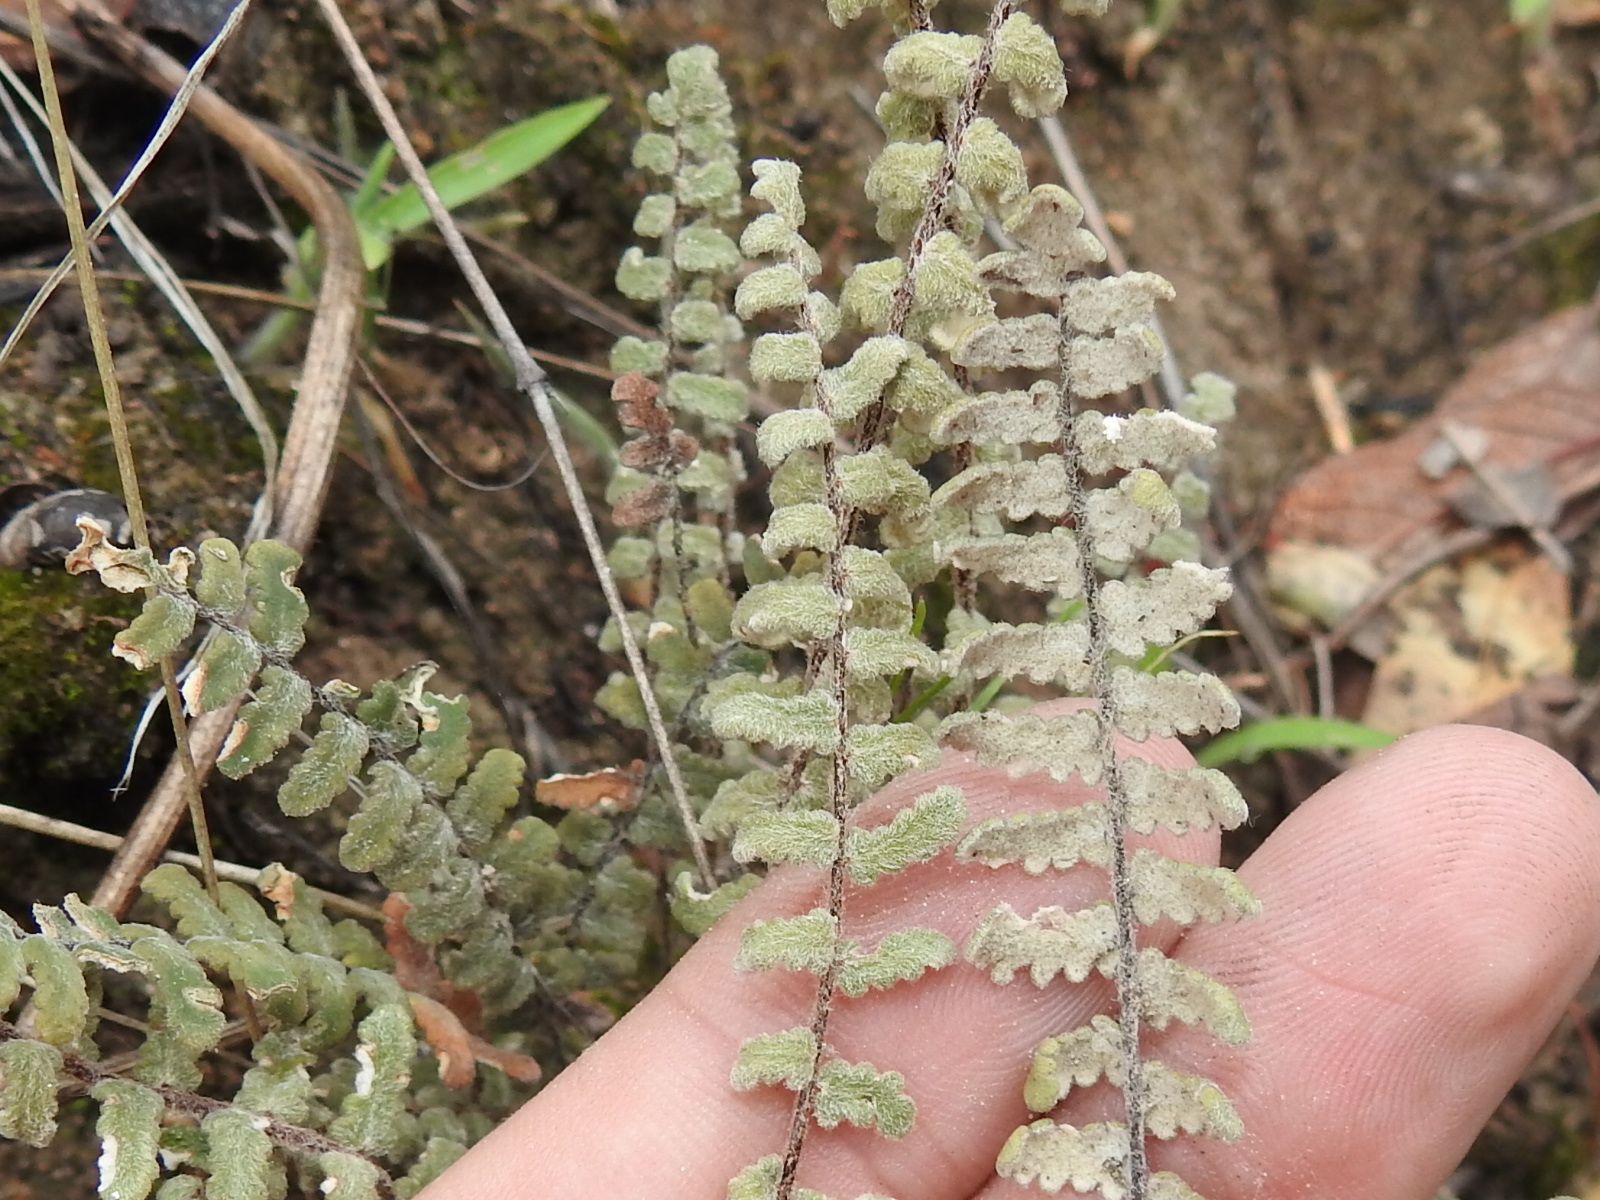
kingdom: Plantae
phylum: Tracheophyta
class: Polypodiopsida
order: Polypodiales
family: Pteridaceae
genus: Myriopteris
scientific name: Myriopteris aurea
